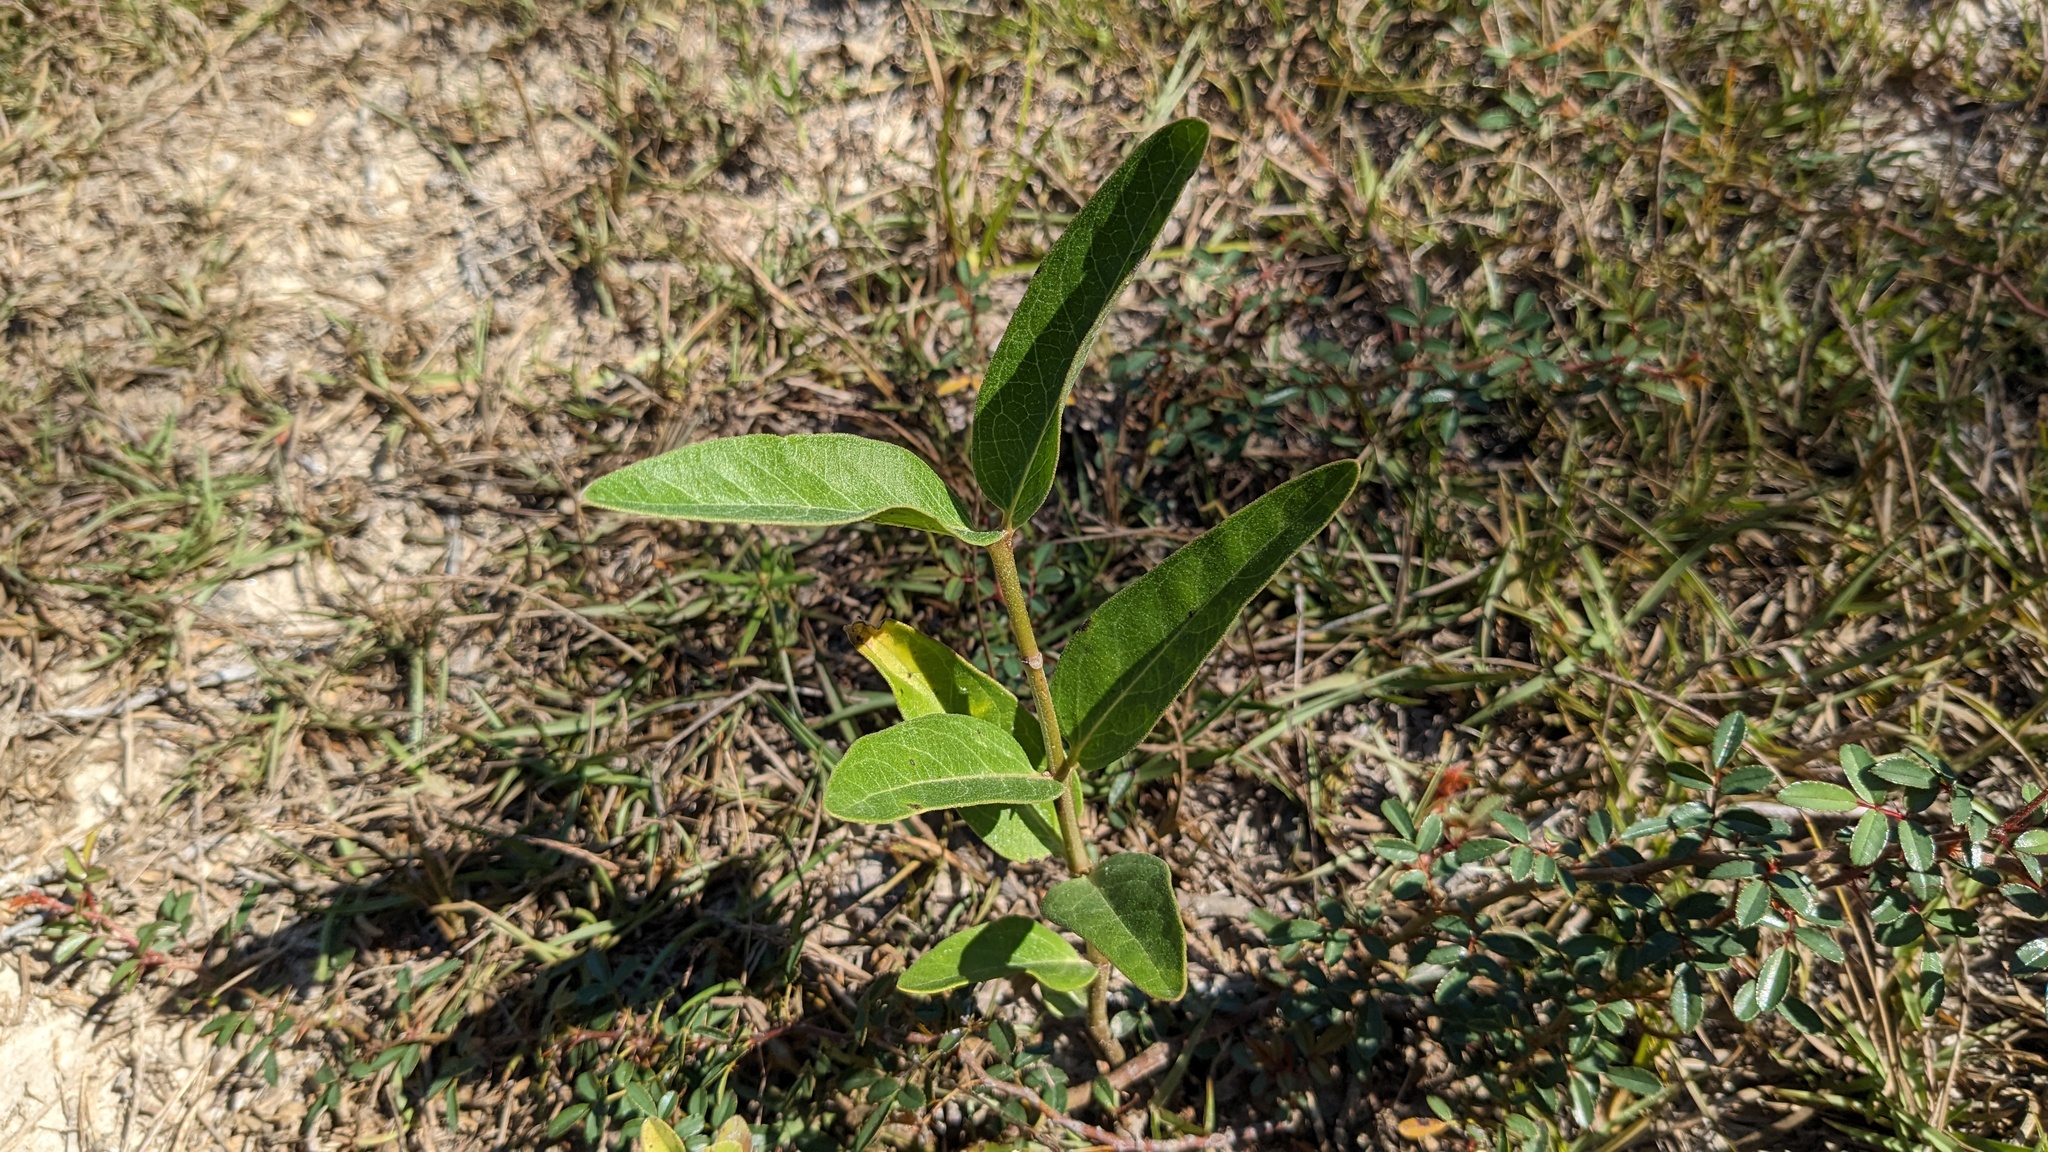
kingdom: Plantae
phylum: Tracheophyta
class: Magnoliopsida
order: Gentianales
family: Apocynaceae
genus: Asclepias
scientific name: Asclepias viridis
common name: Antelope-horns
